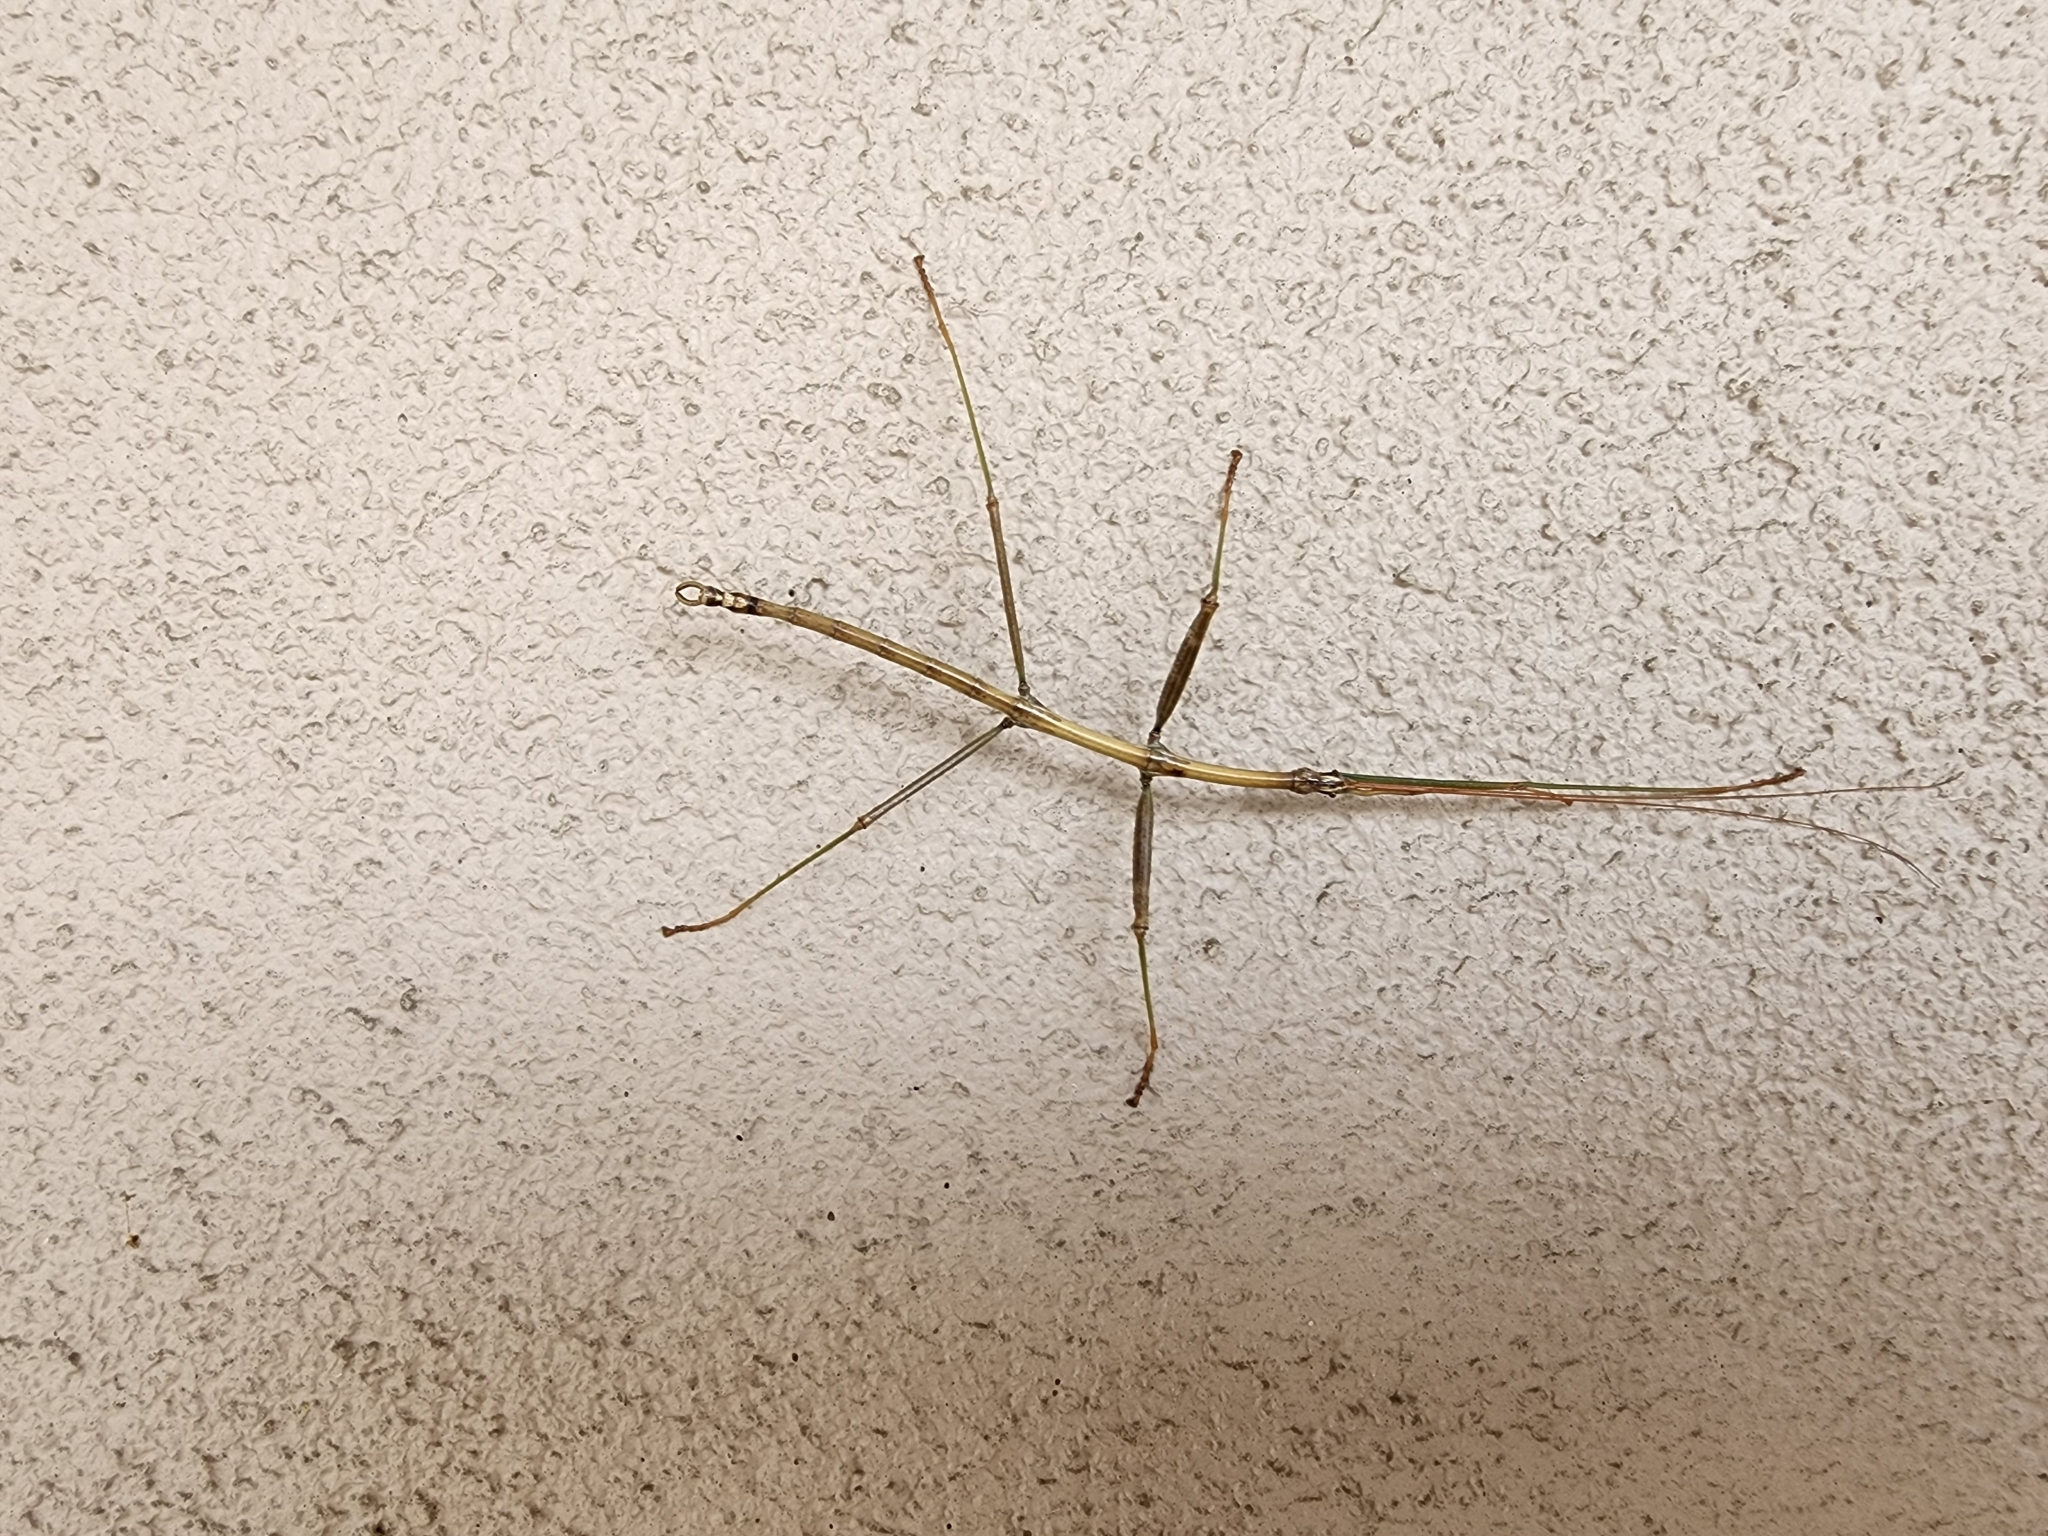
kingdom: Animalia
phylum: Arthropoda
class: Insecta
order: Phasmida
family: Diapheromeridae
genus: Diapheromera
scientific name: Diapheromera femorata
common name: Common american walkingstick
